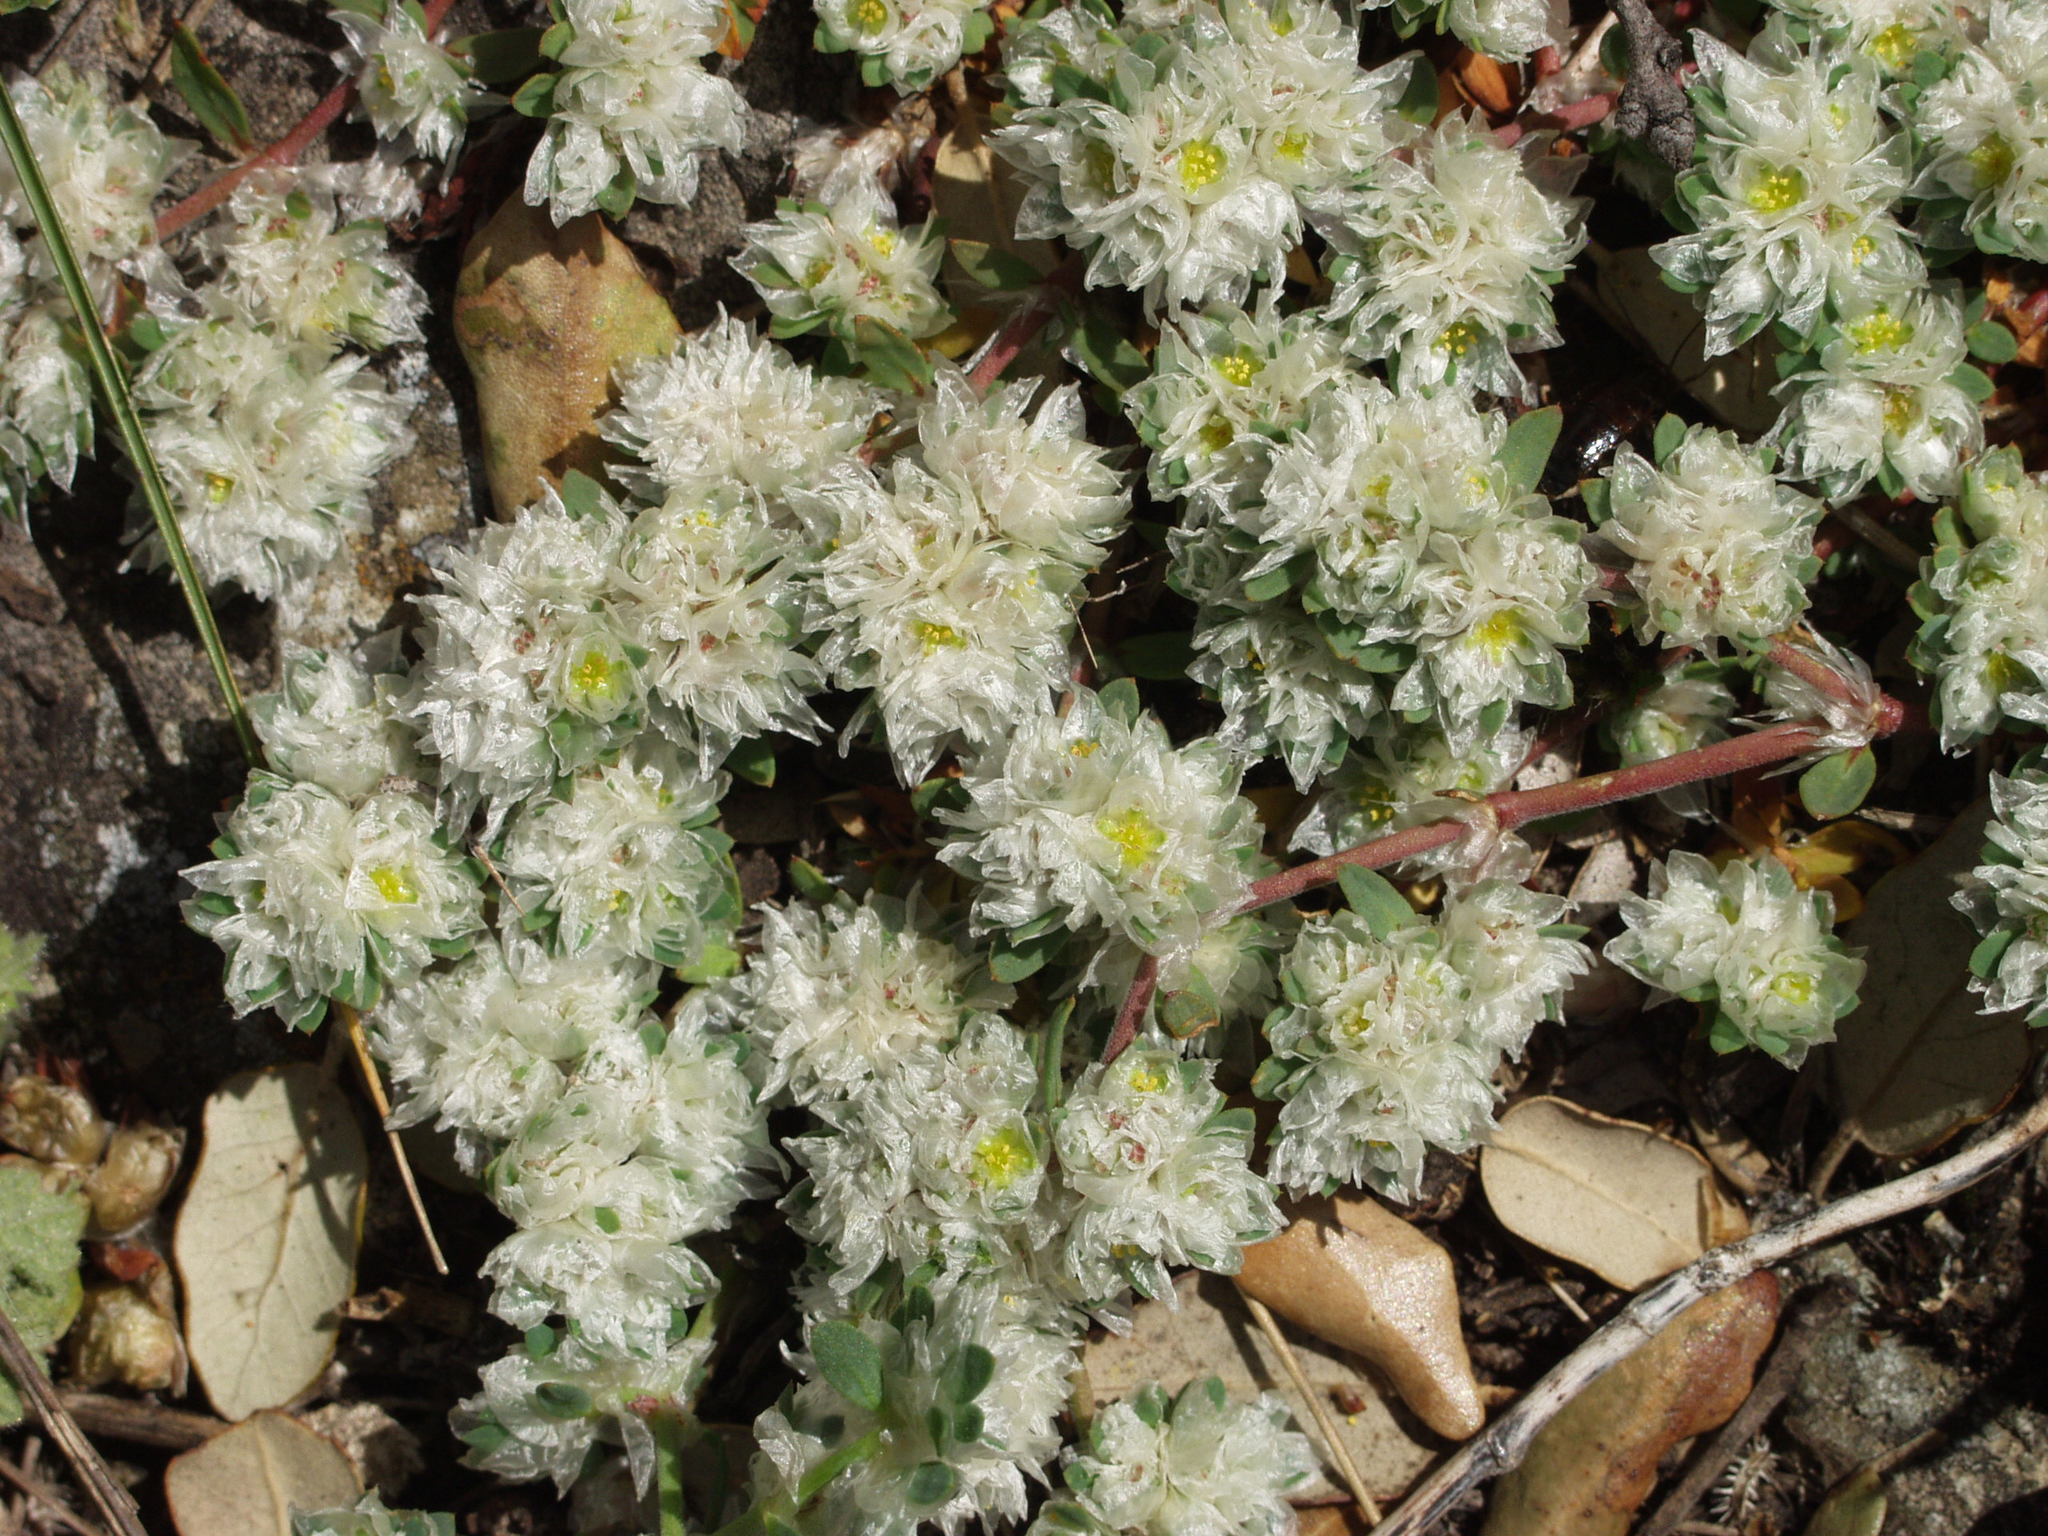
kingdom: Plantae
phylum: Tracheophyta
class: Magnoliopsida
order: Caryophyllales
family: Caryophyllaceae
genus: Paronychia
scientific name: Paronychia argentea
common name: Silver nailroot
